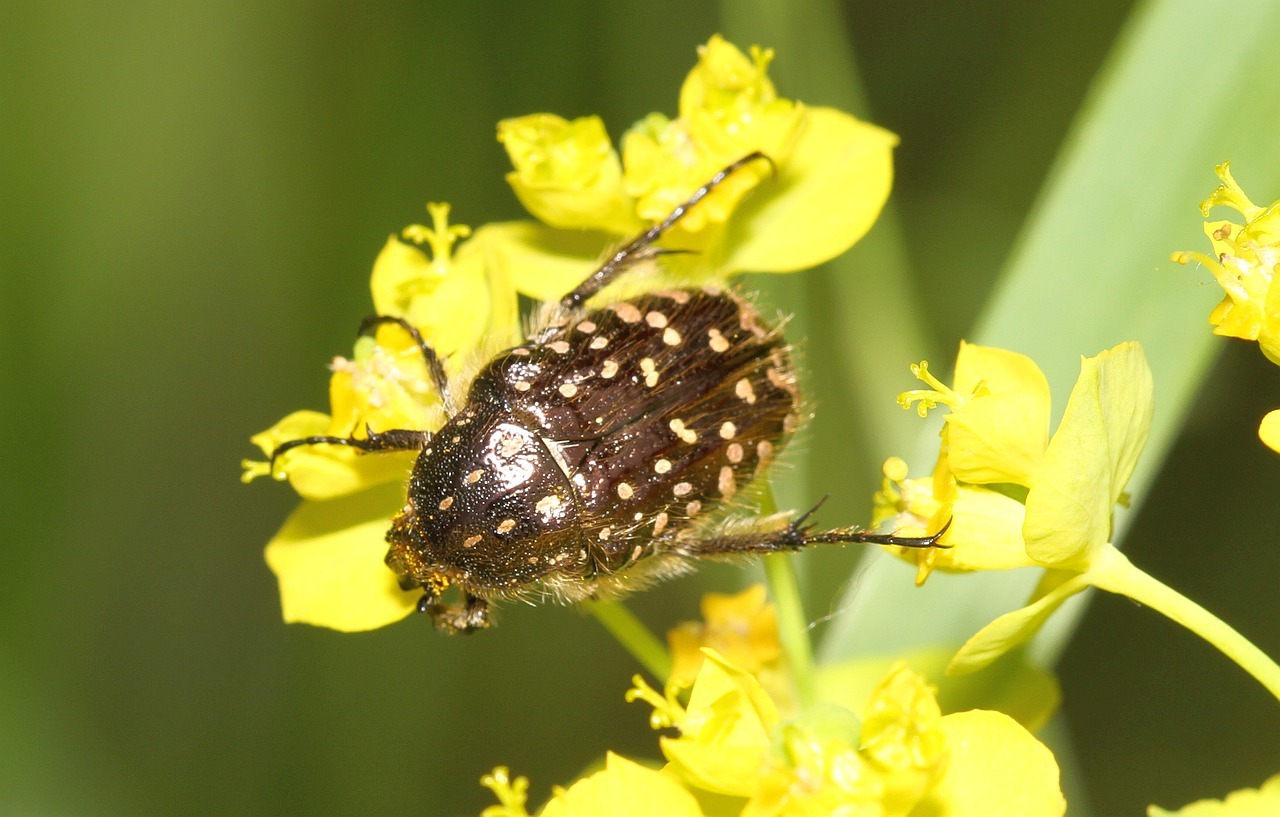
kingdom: Animalia
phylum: Arthropoda
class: Insecta
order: Coleoptera
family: Scarabaeidae
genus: Oxythyrea
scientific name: Oxythyrea funesta
